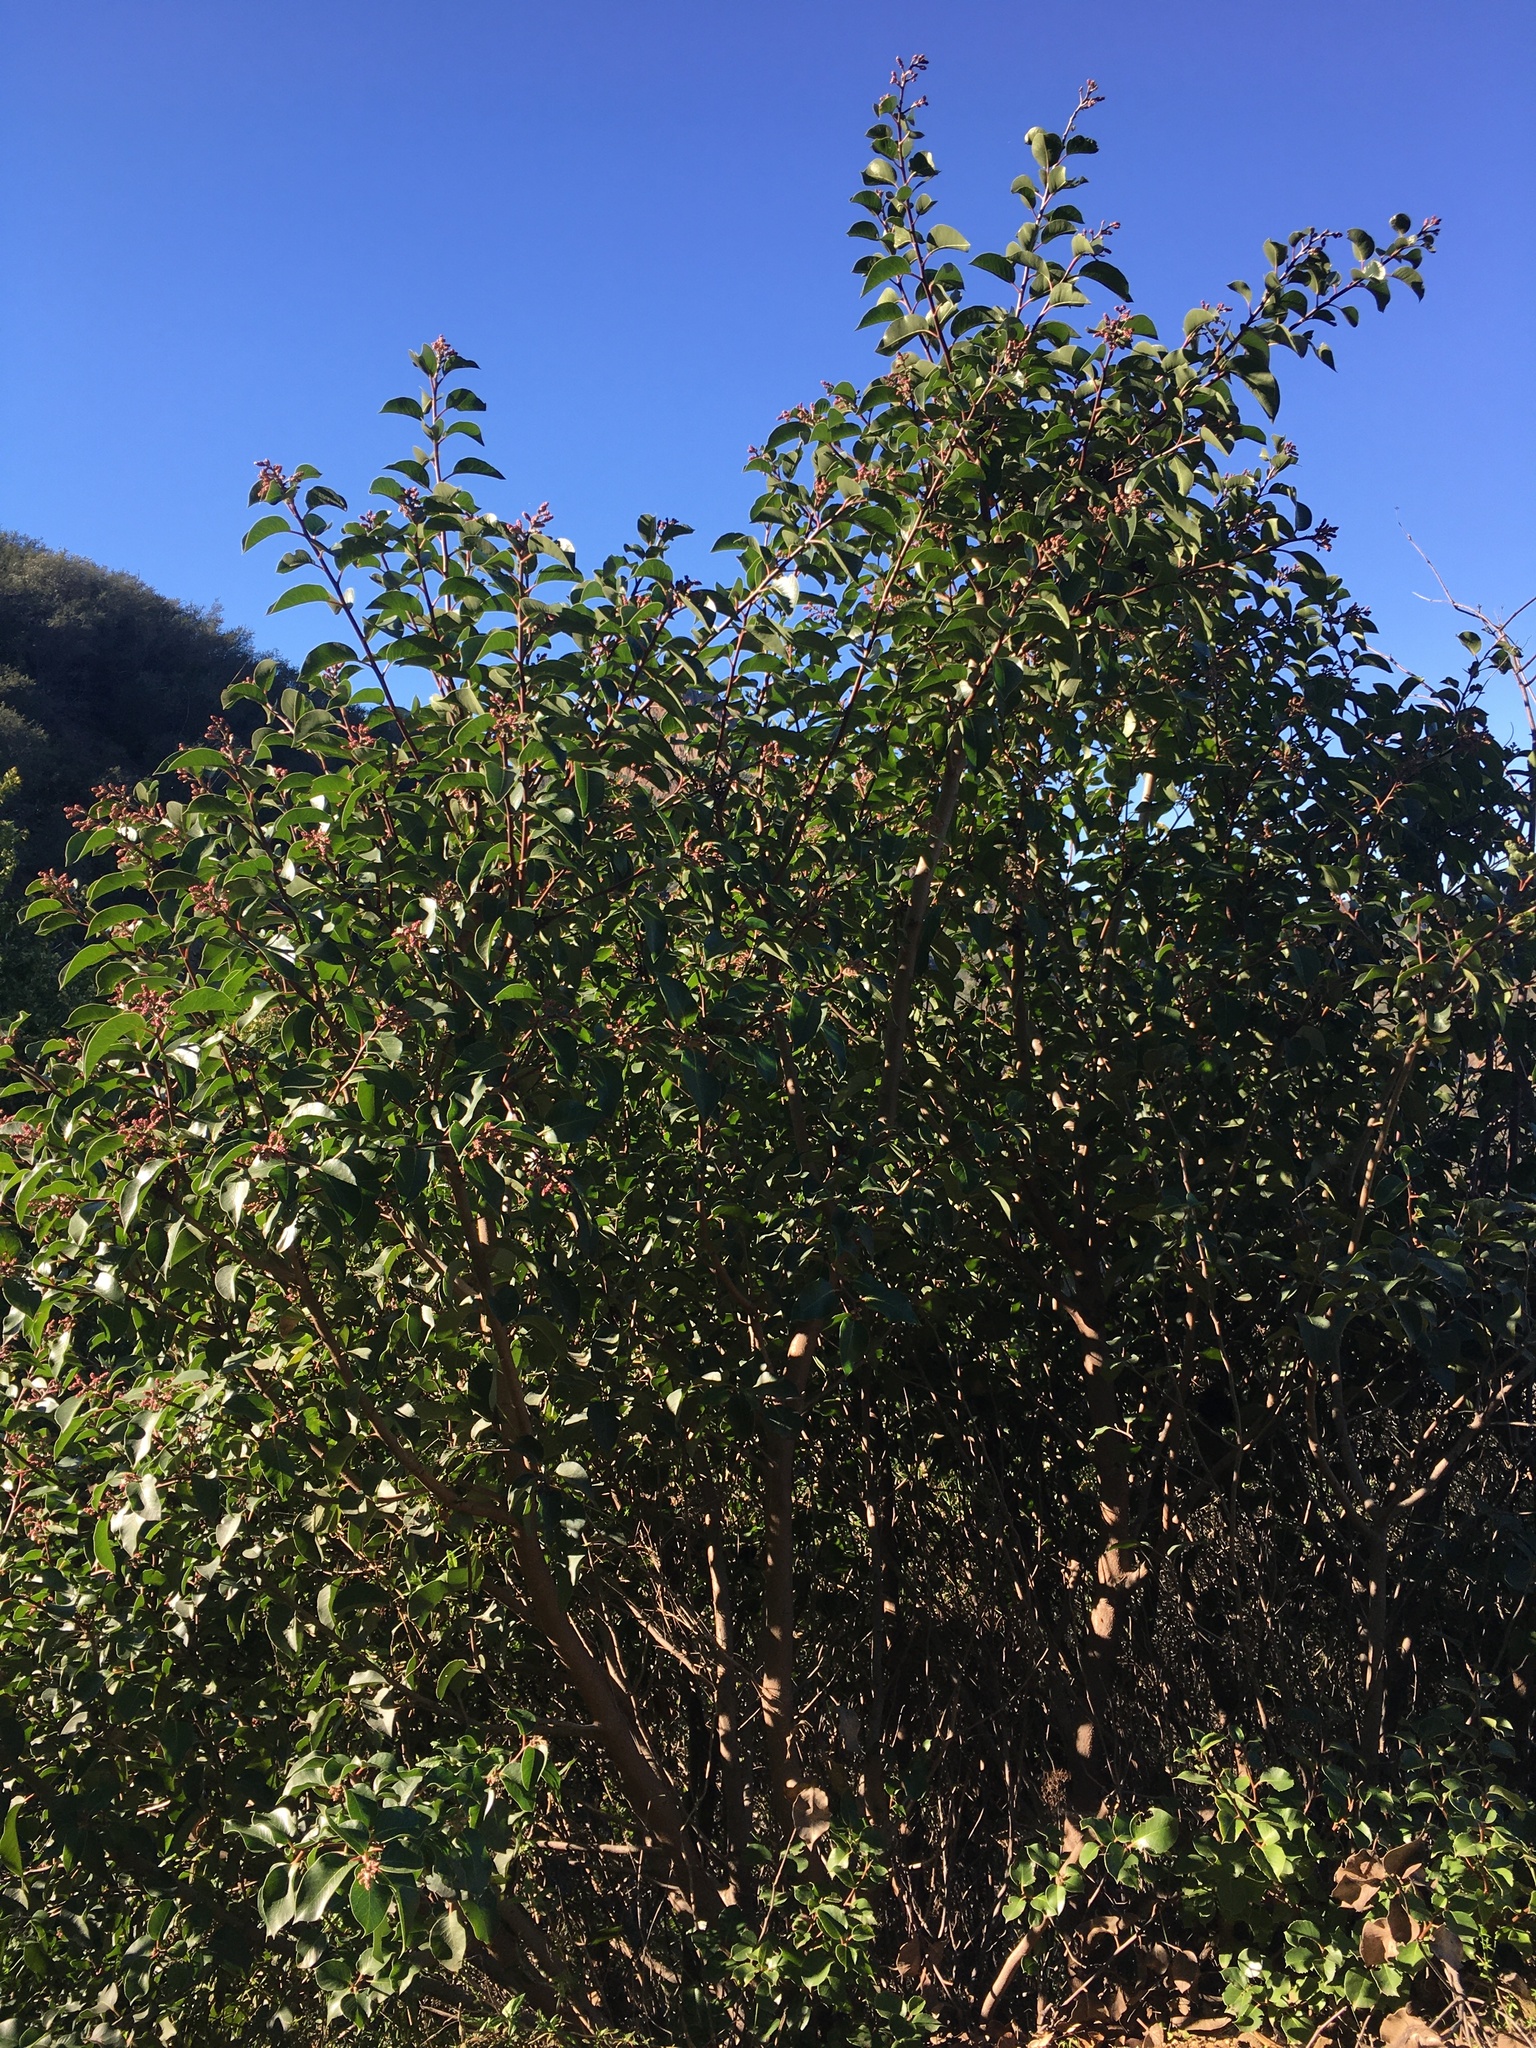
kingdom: Plantae
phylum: Tracheophyta
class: Magnoliopsida
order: Sapindales
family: Anacardiaceae
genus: Rhus
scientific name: Rhus ovata
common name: Sugar sumac
